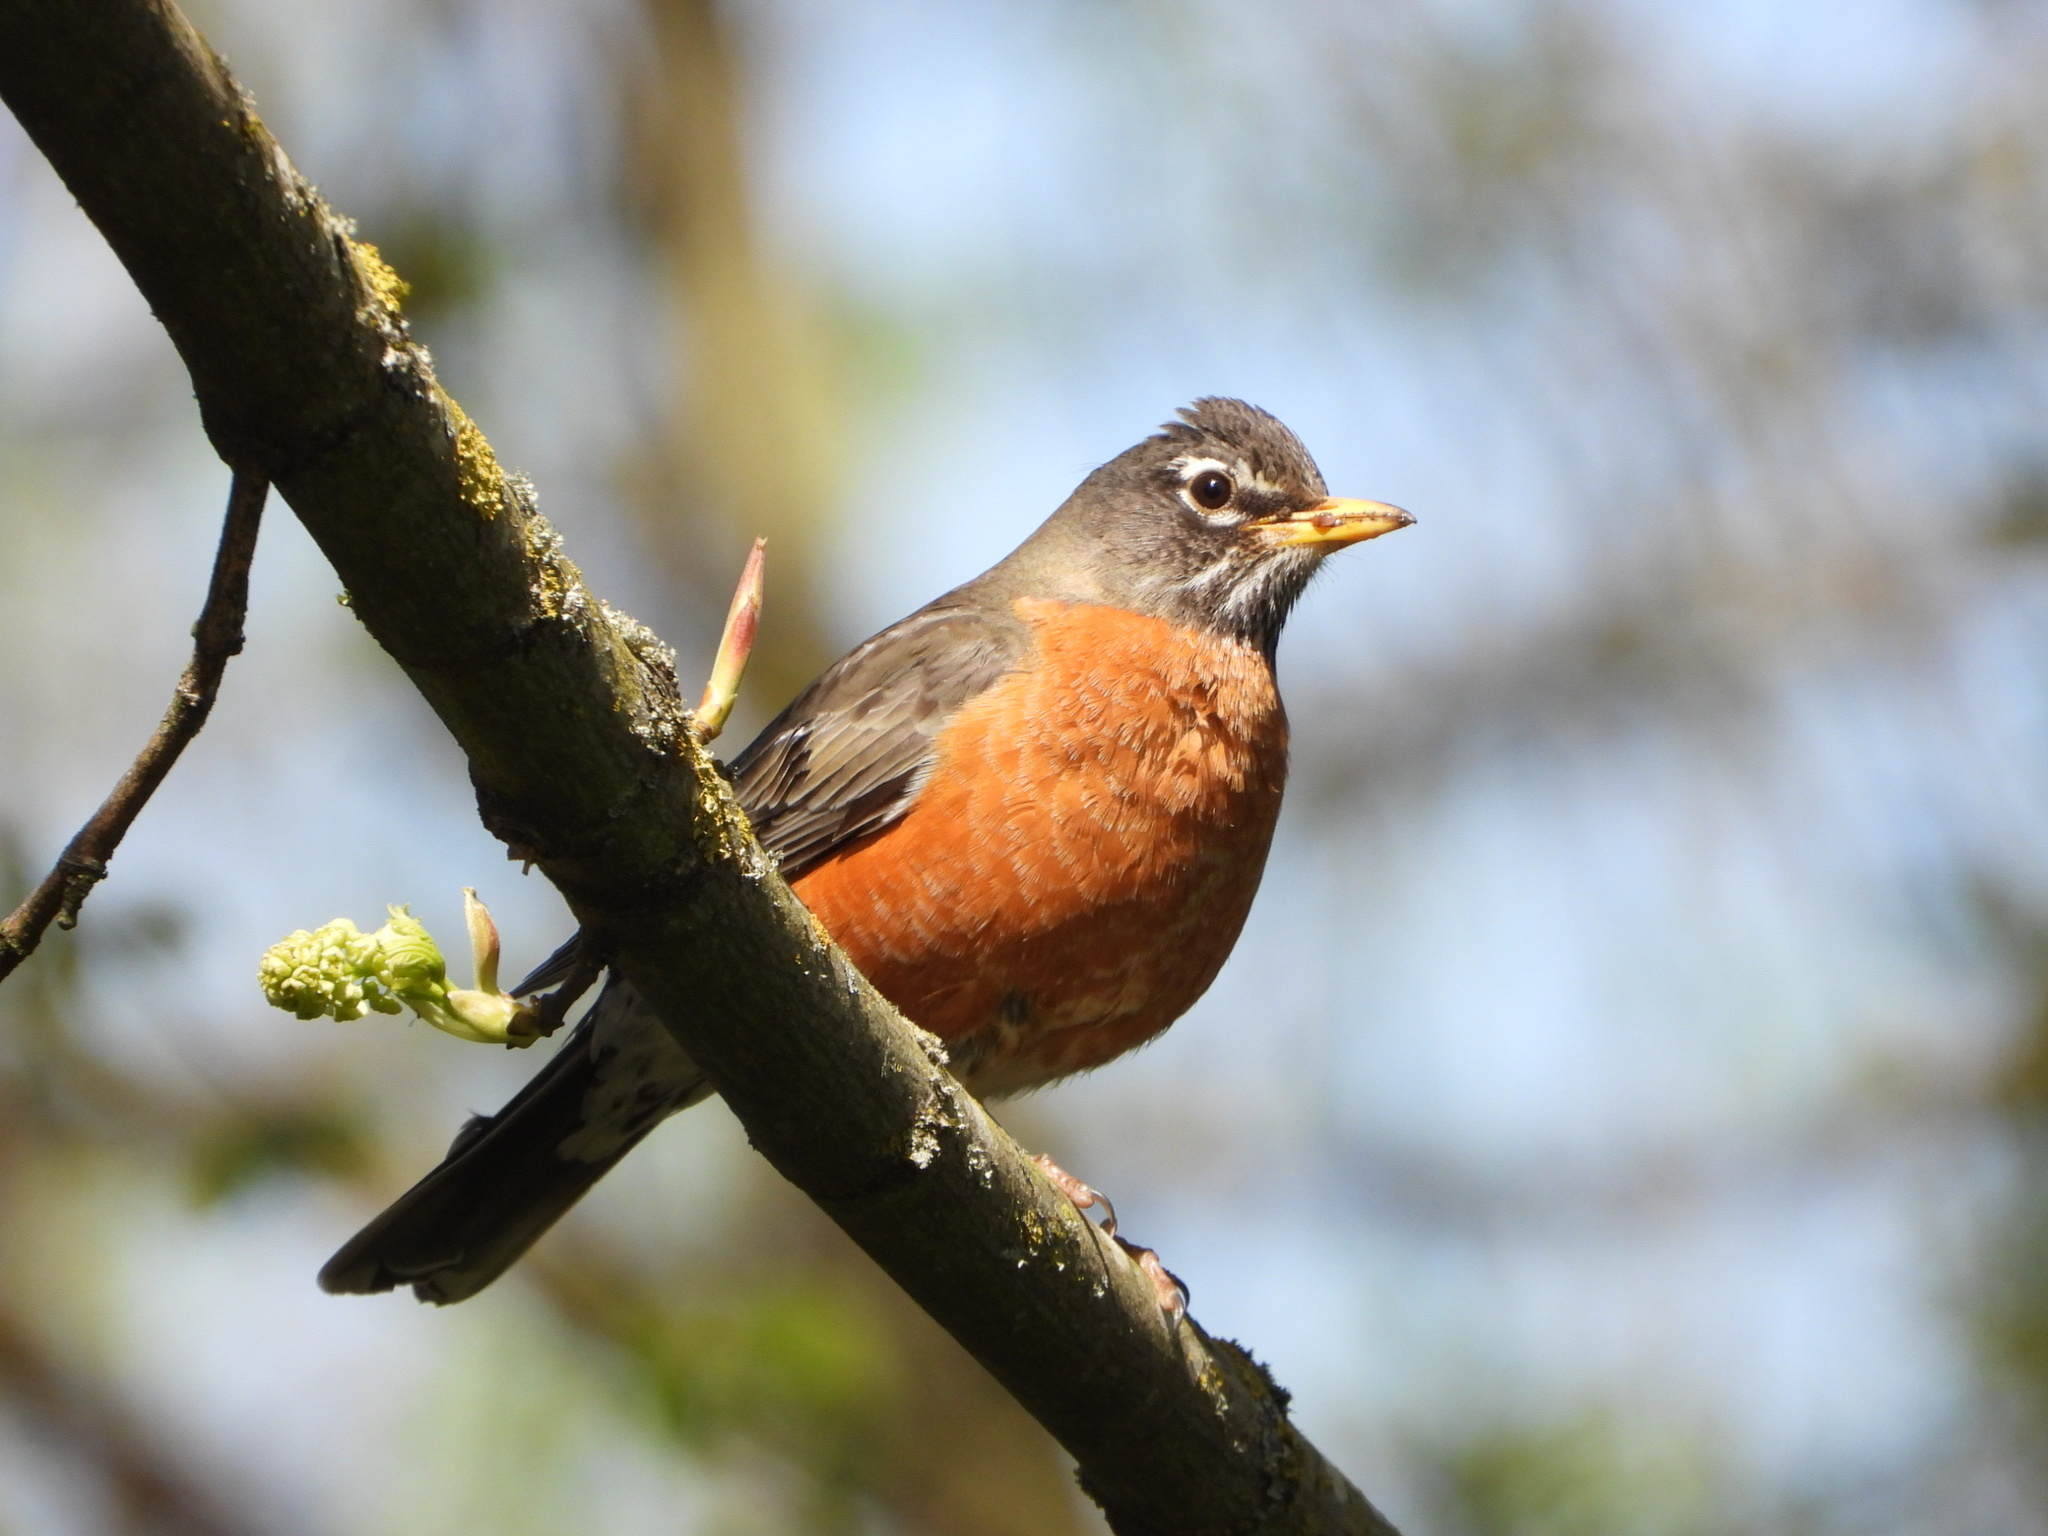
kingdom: Animalia
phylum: Chordata
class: Aves
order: Passeriformes
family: Turdidae
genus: Turdus
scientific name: Turdus migratorius
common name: American robin
